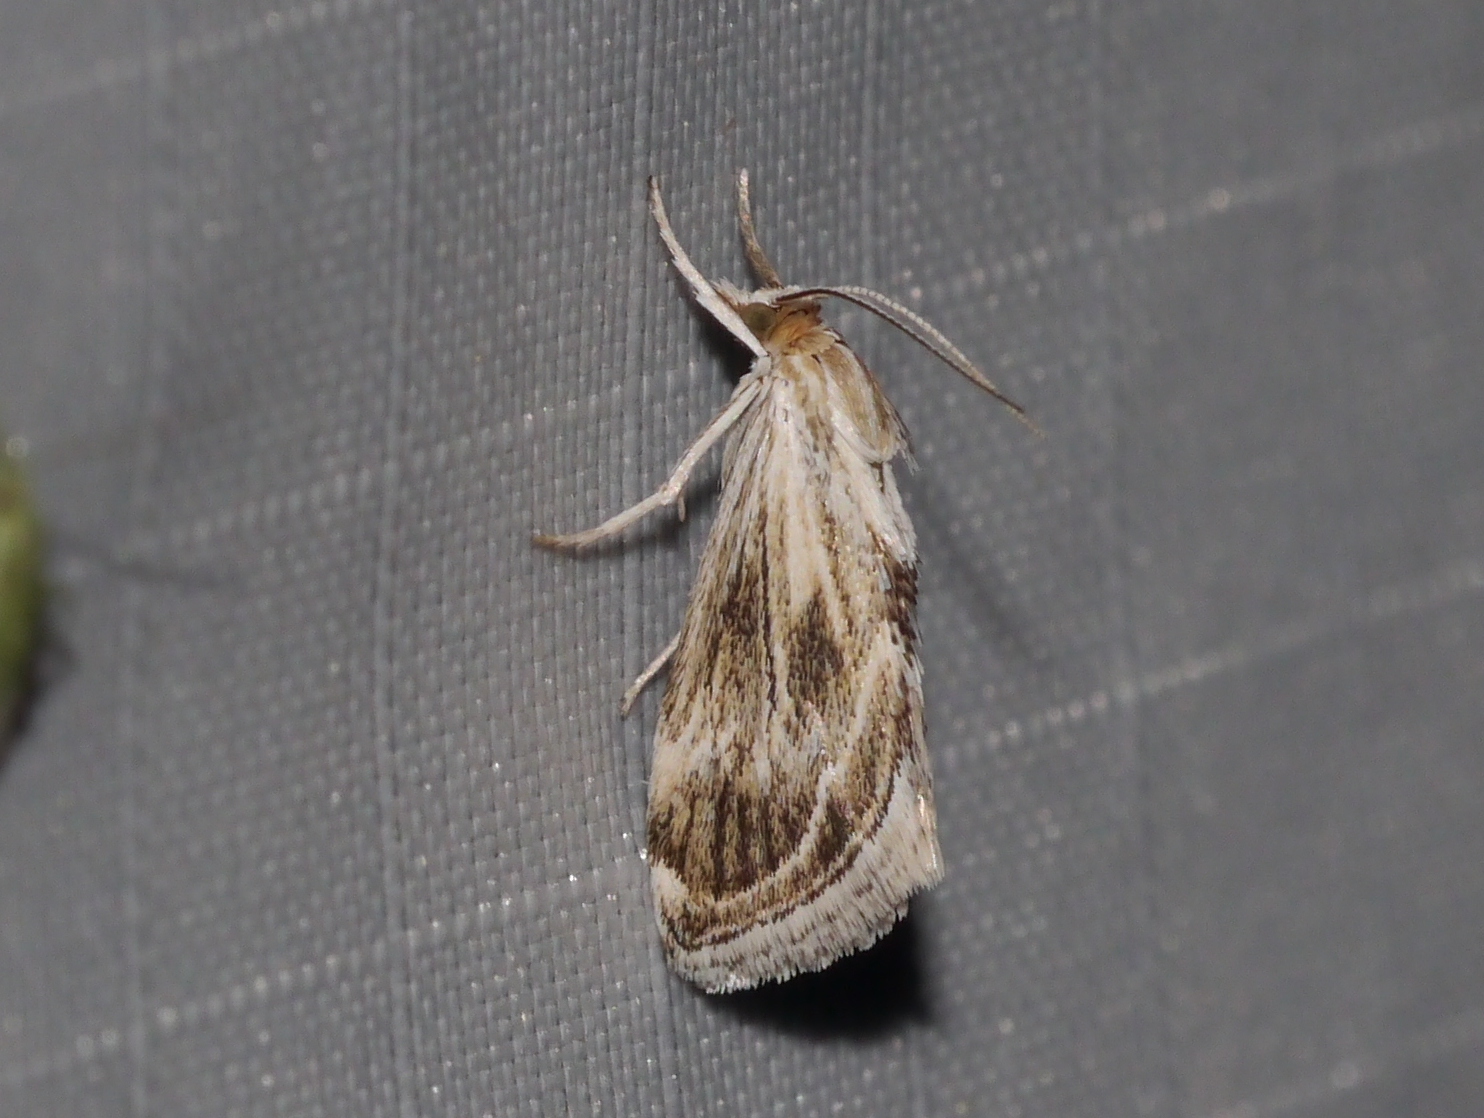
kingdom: Animalia
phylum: Arthropoda
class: Insecta
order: Lepidoptera
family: Crambidae
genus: Frechinia
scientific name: Frechinia helianthiales
